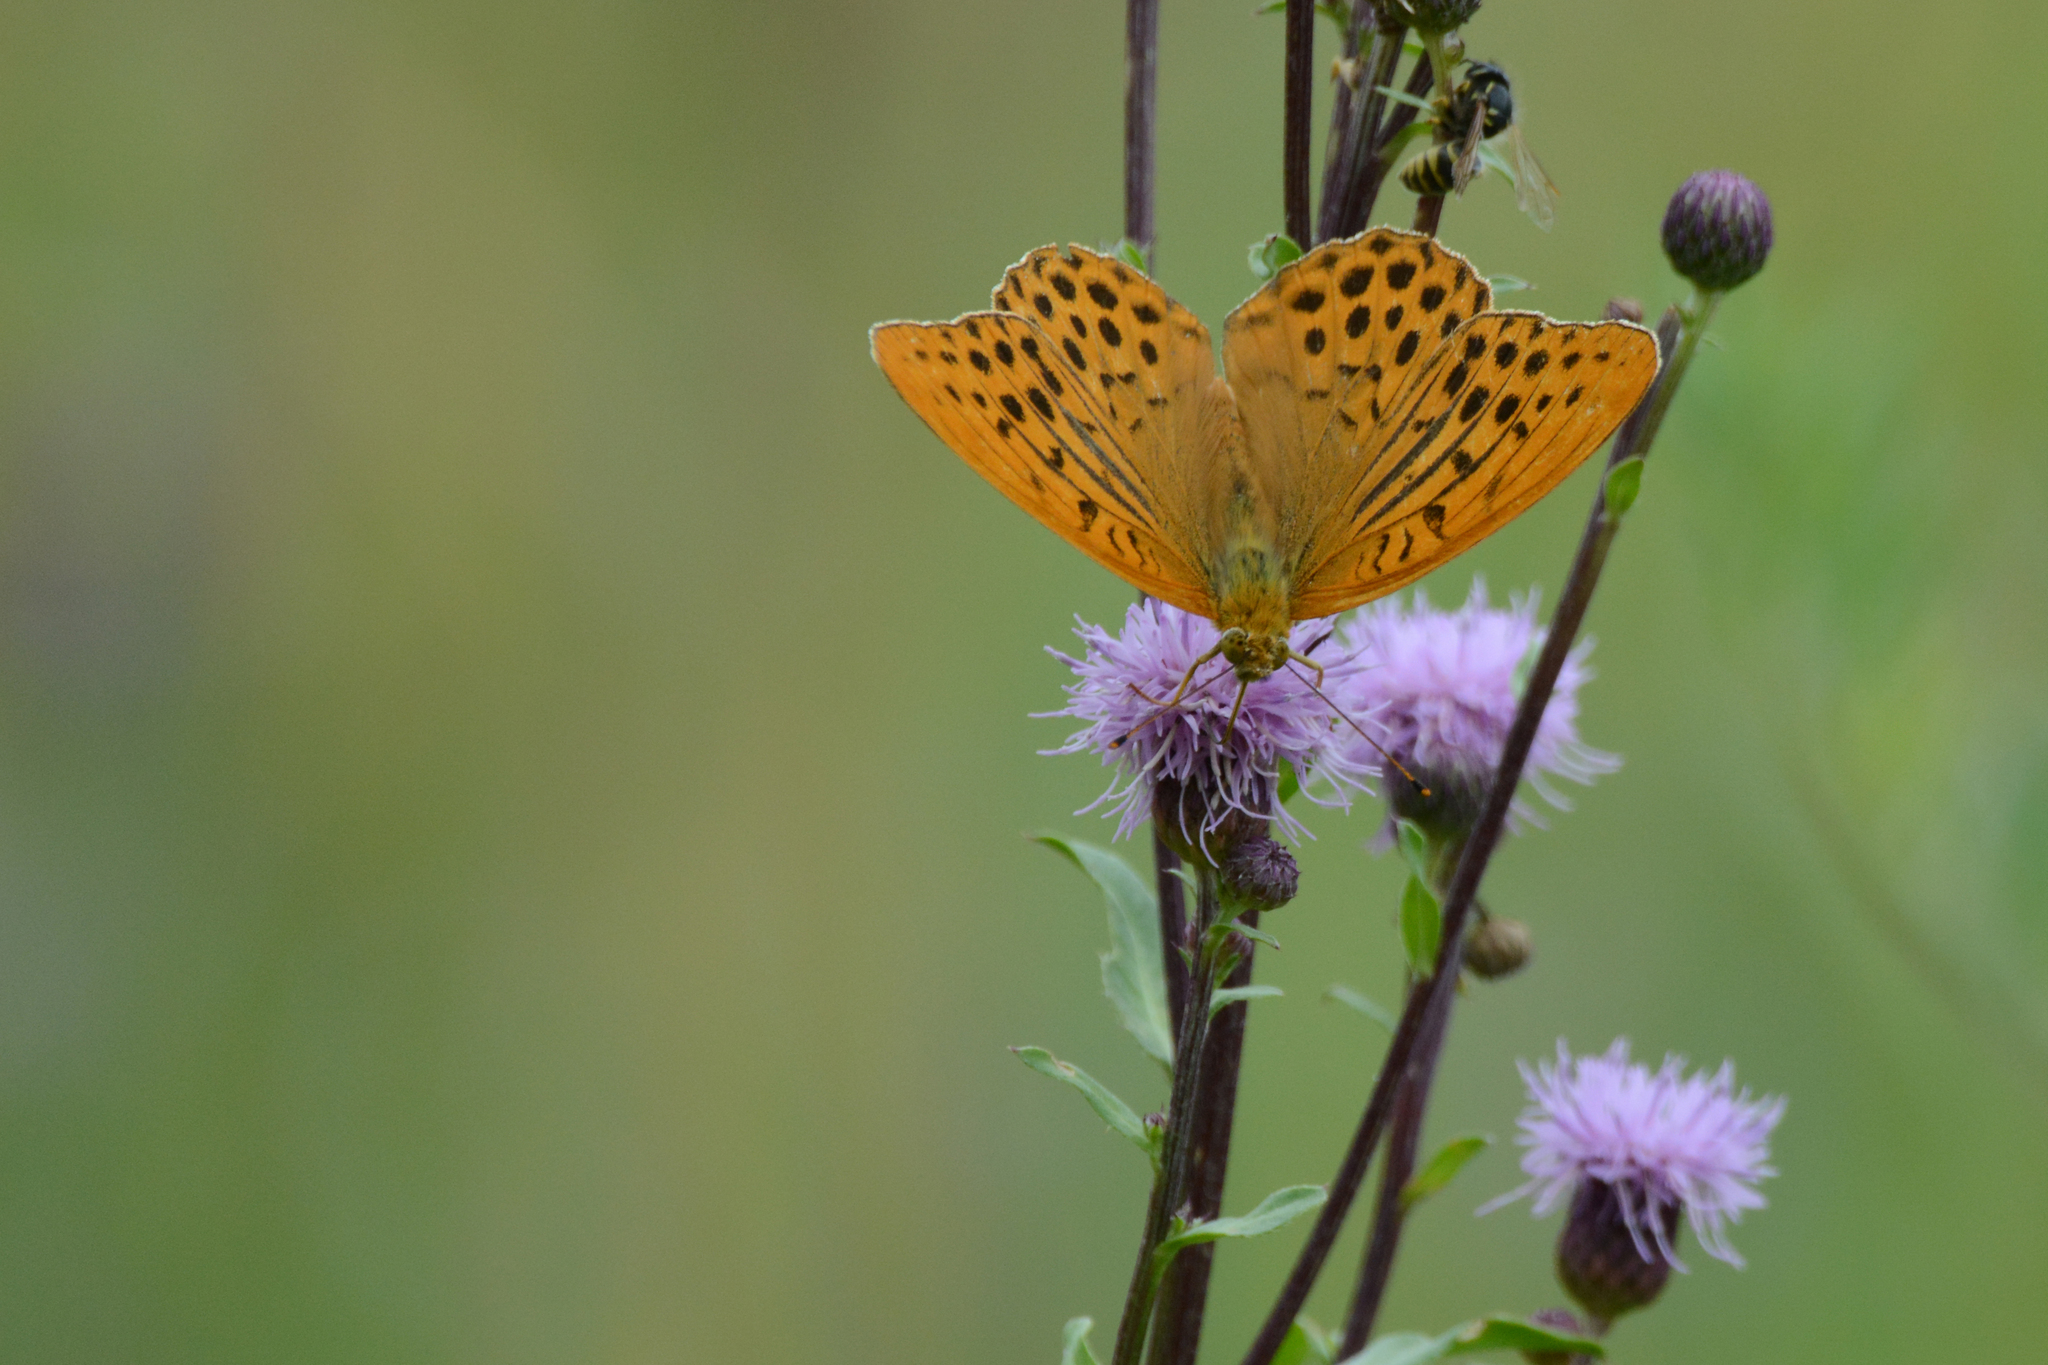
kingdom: Animalia
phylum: Arthropoda
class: Insecta
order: Lepidoptera
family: Nymphalidae
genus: Argynnis
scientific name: Argynnis paphia
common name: Silver-washed fritillary
